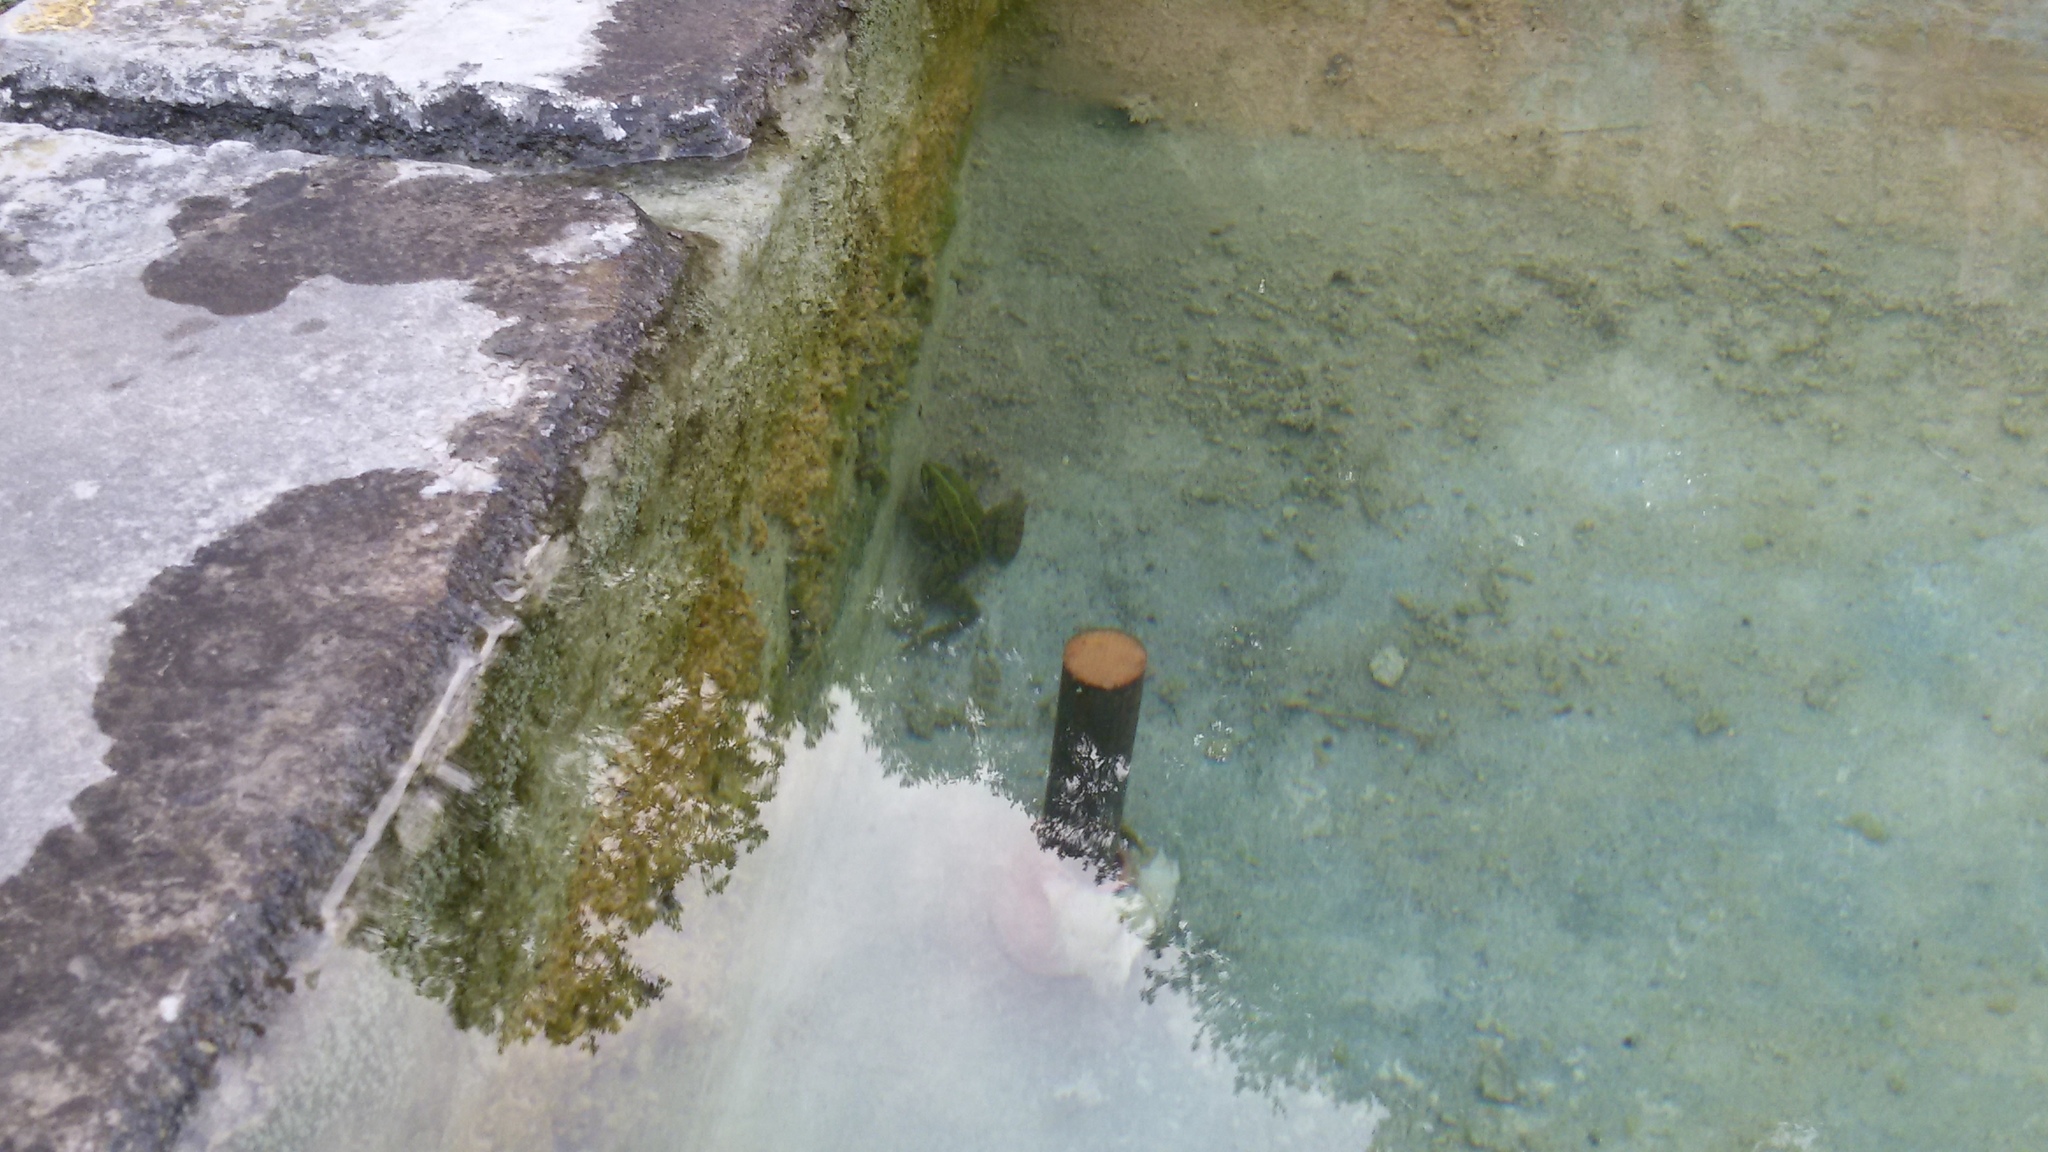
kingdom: Animalia
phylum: Chordata
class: Amphibia
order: Anura
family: Ranidae
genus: Pelophylax
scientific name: Pelophylax
